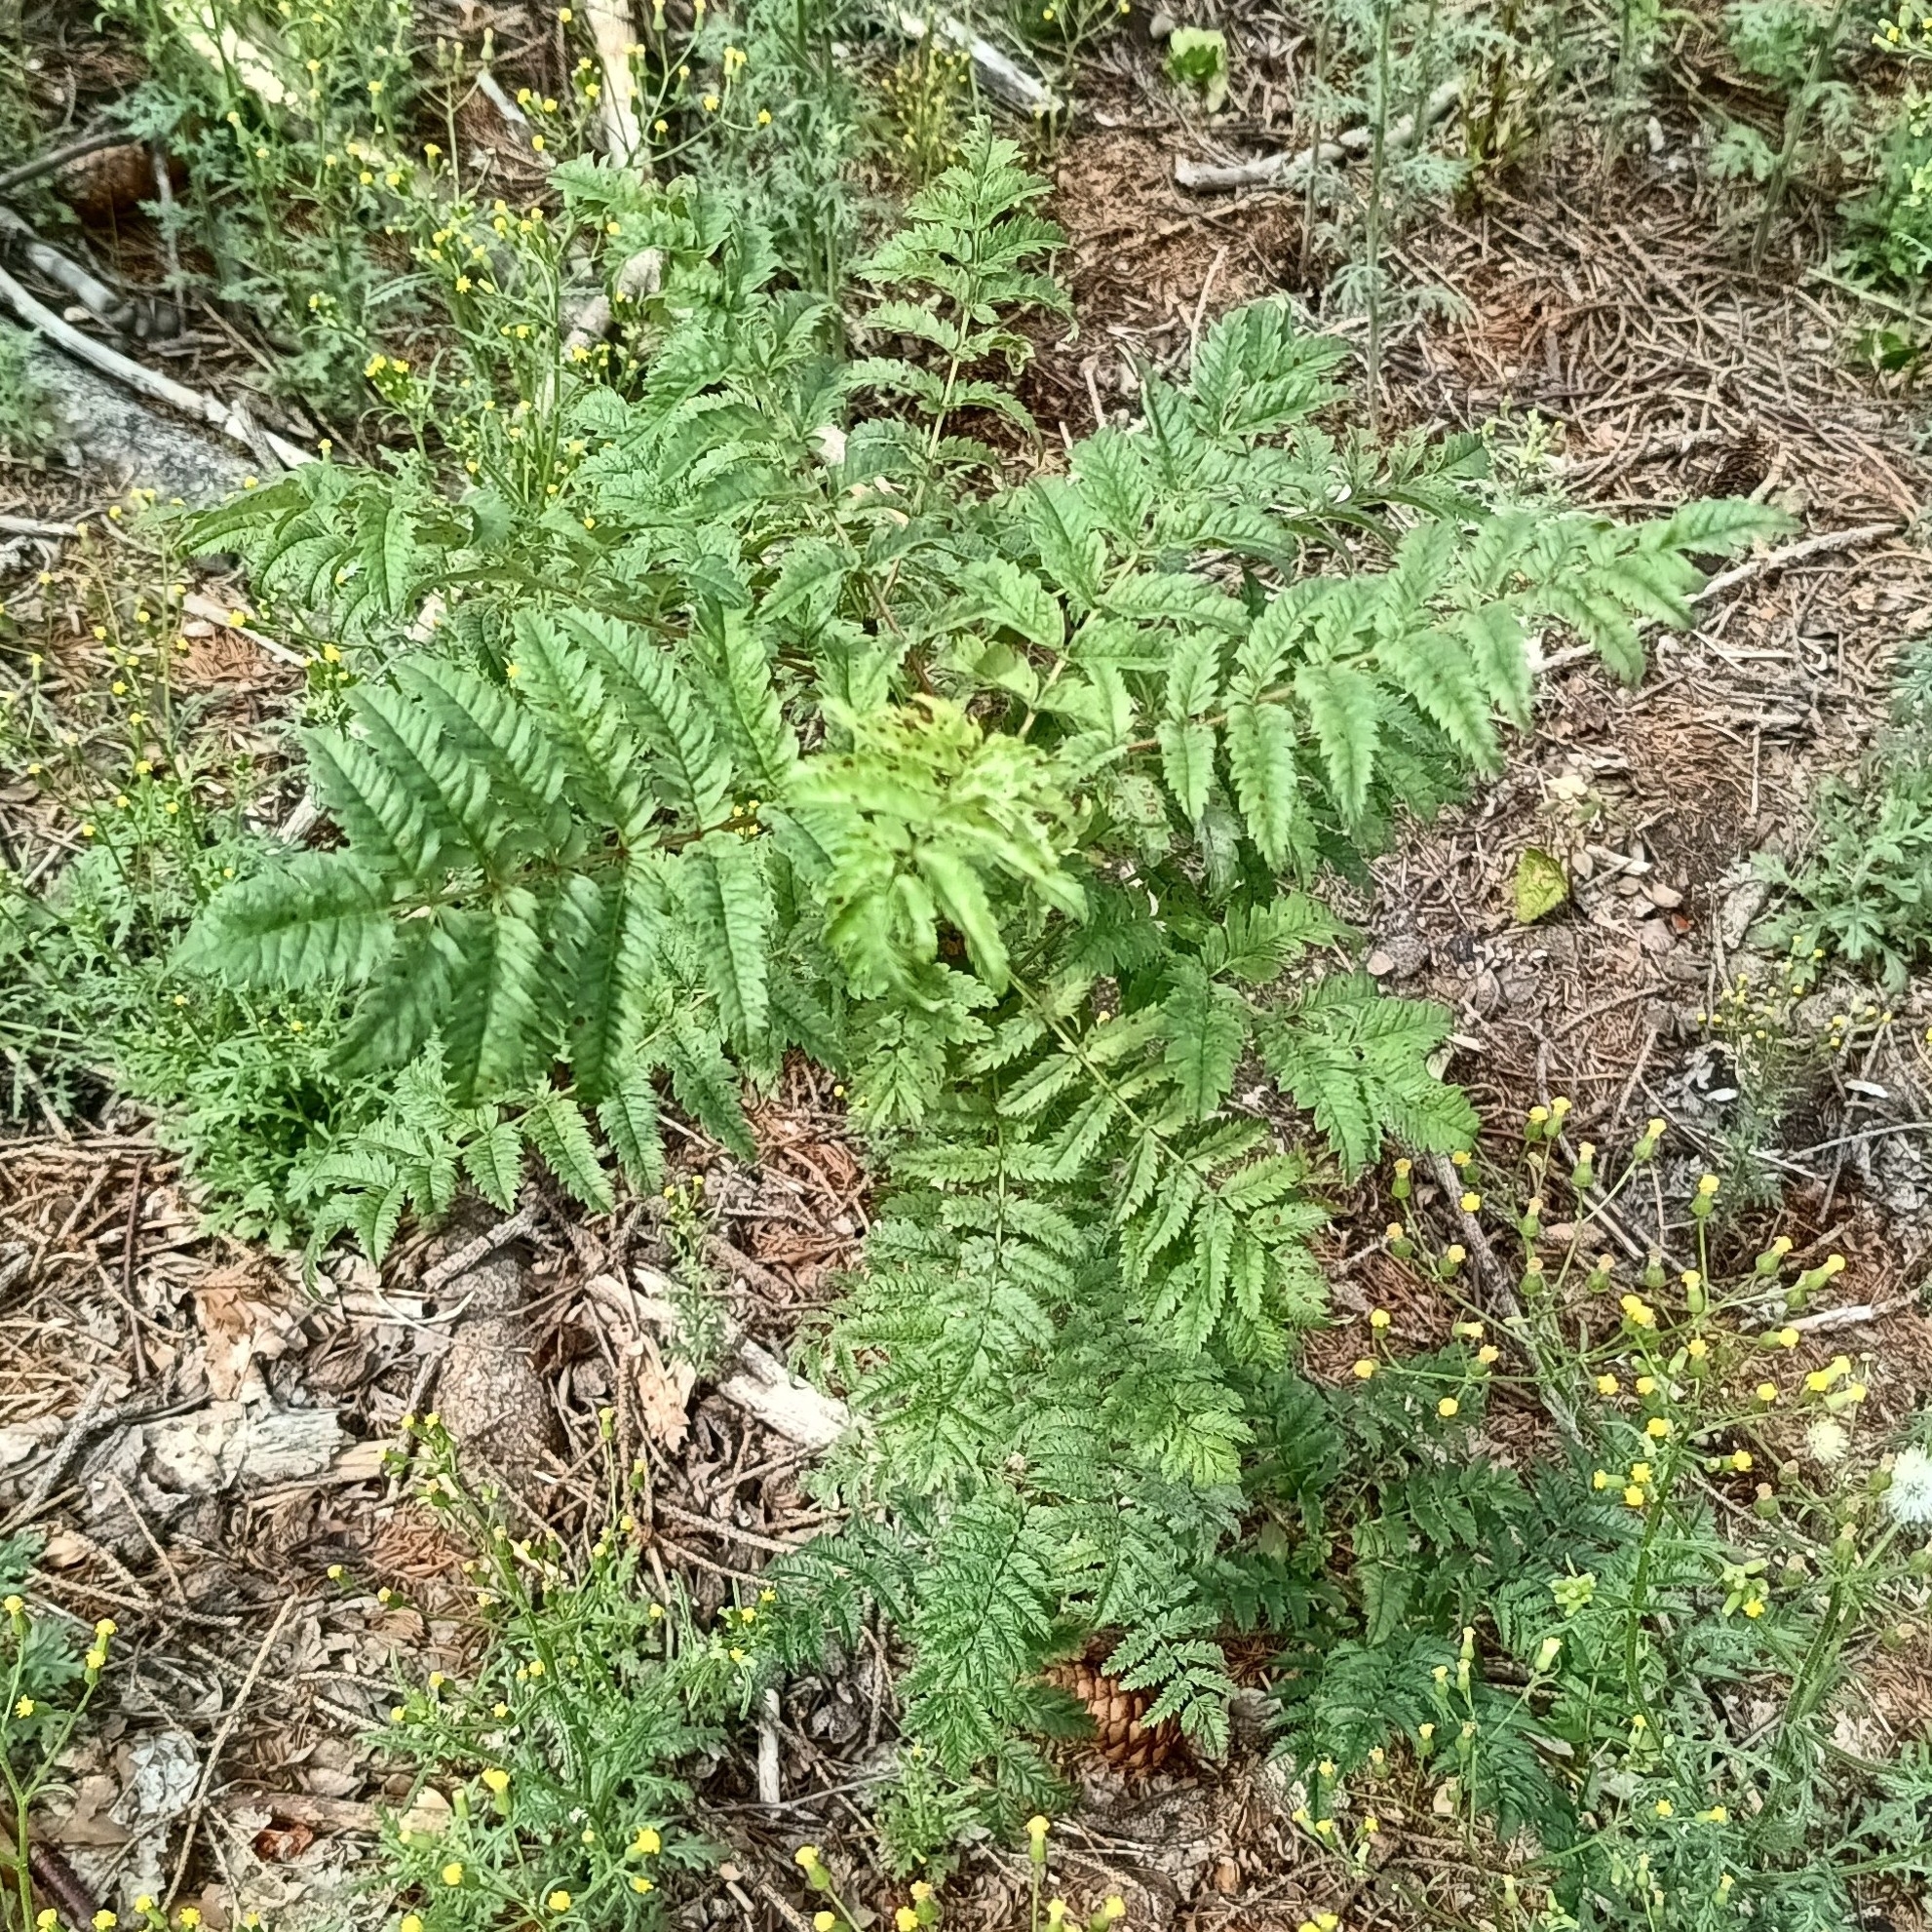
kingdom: Plantae
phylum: Tracheophyta
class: Magnoliopsida
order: Rosales
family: Rosaceae
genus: Sorbus
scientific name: Sorbus aucuparia
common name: Rowan
